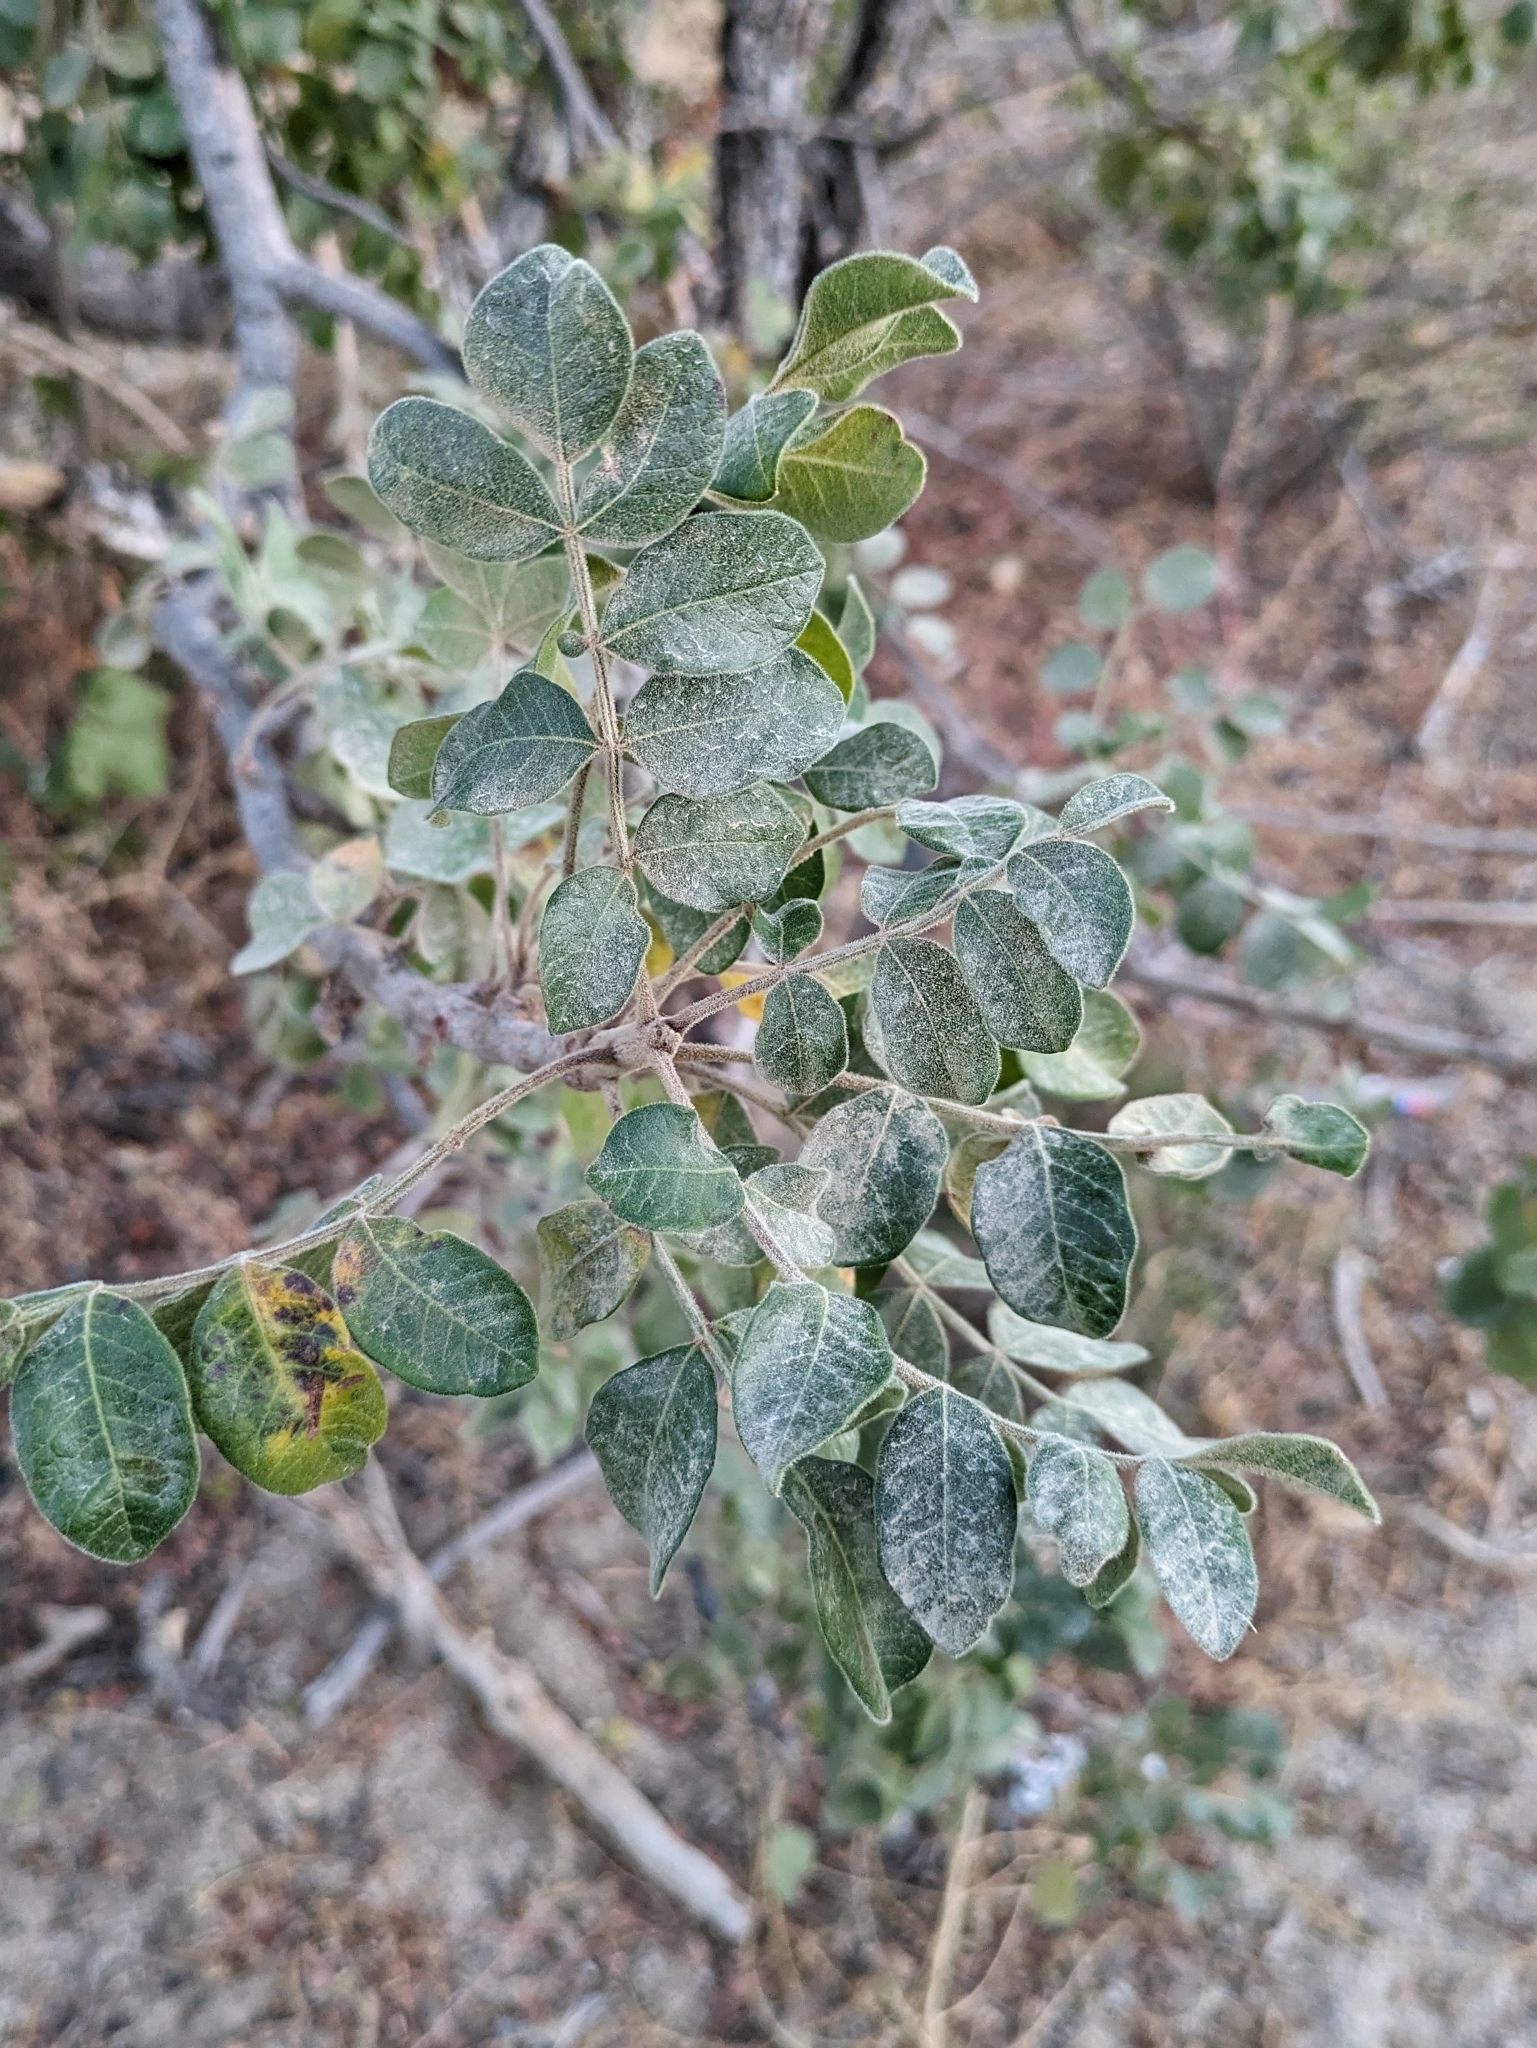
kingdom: Plantae
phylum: Tracheophyta
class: Magnoliopsida
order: Sapindales
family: Anacardiaceae
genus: Cyrtocarpa
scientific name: Cyrtocarpa edulis
